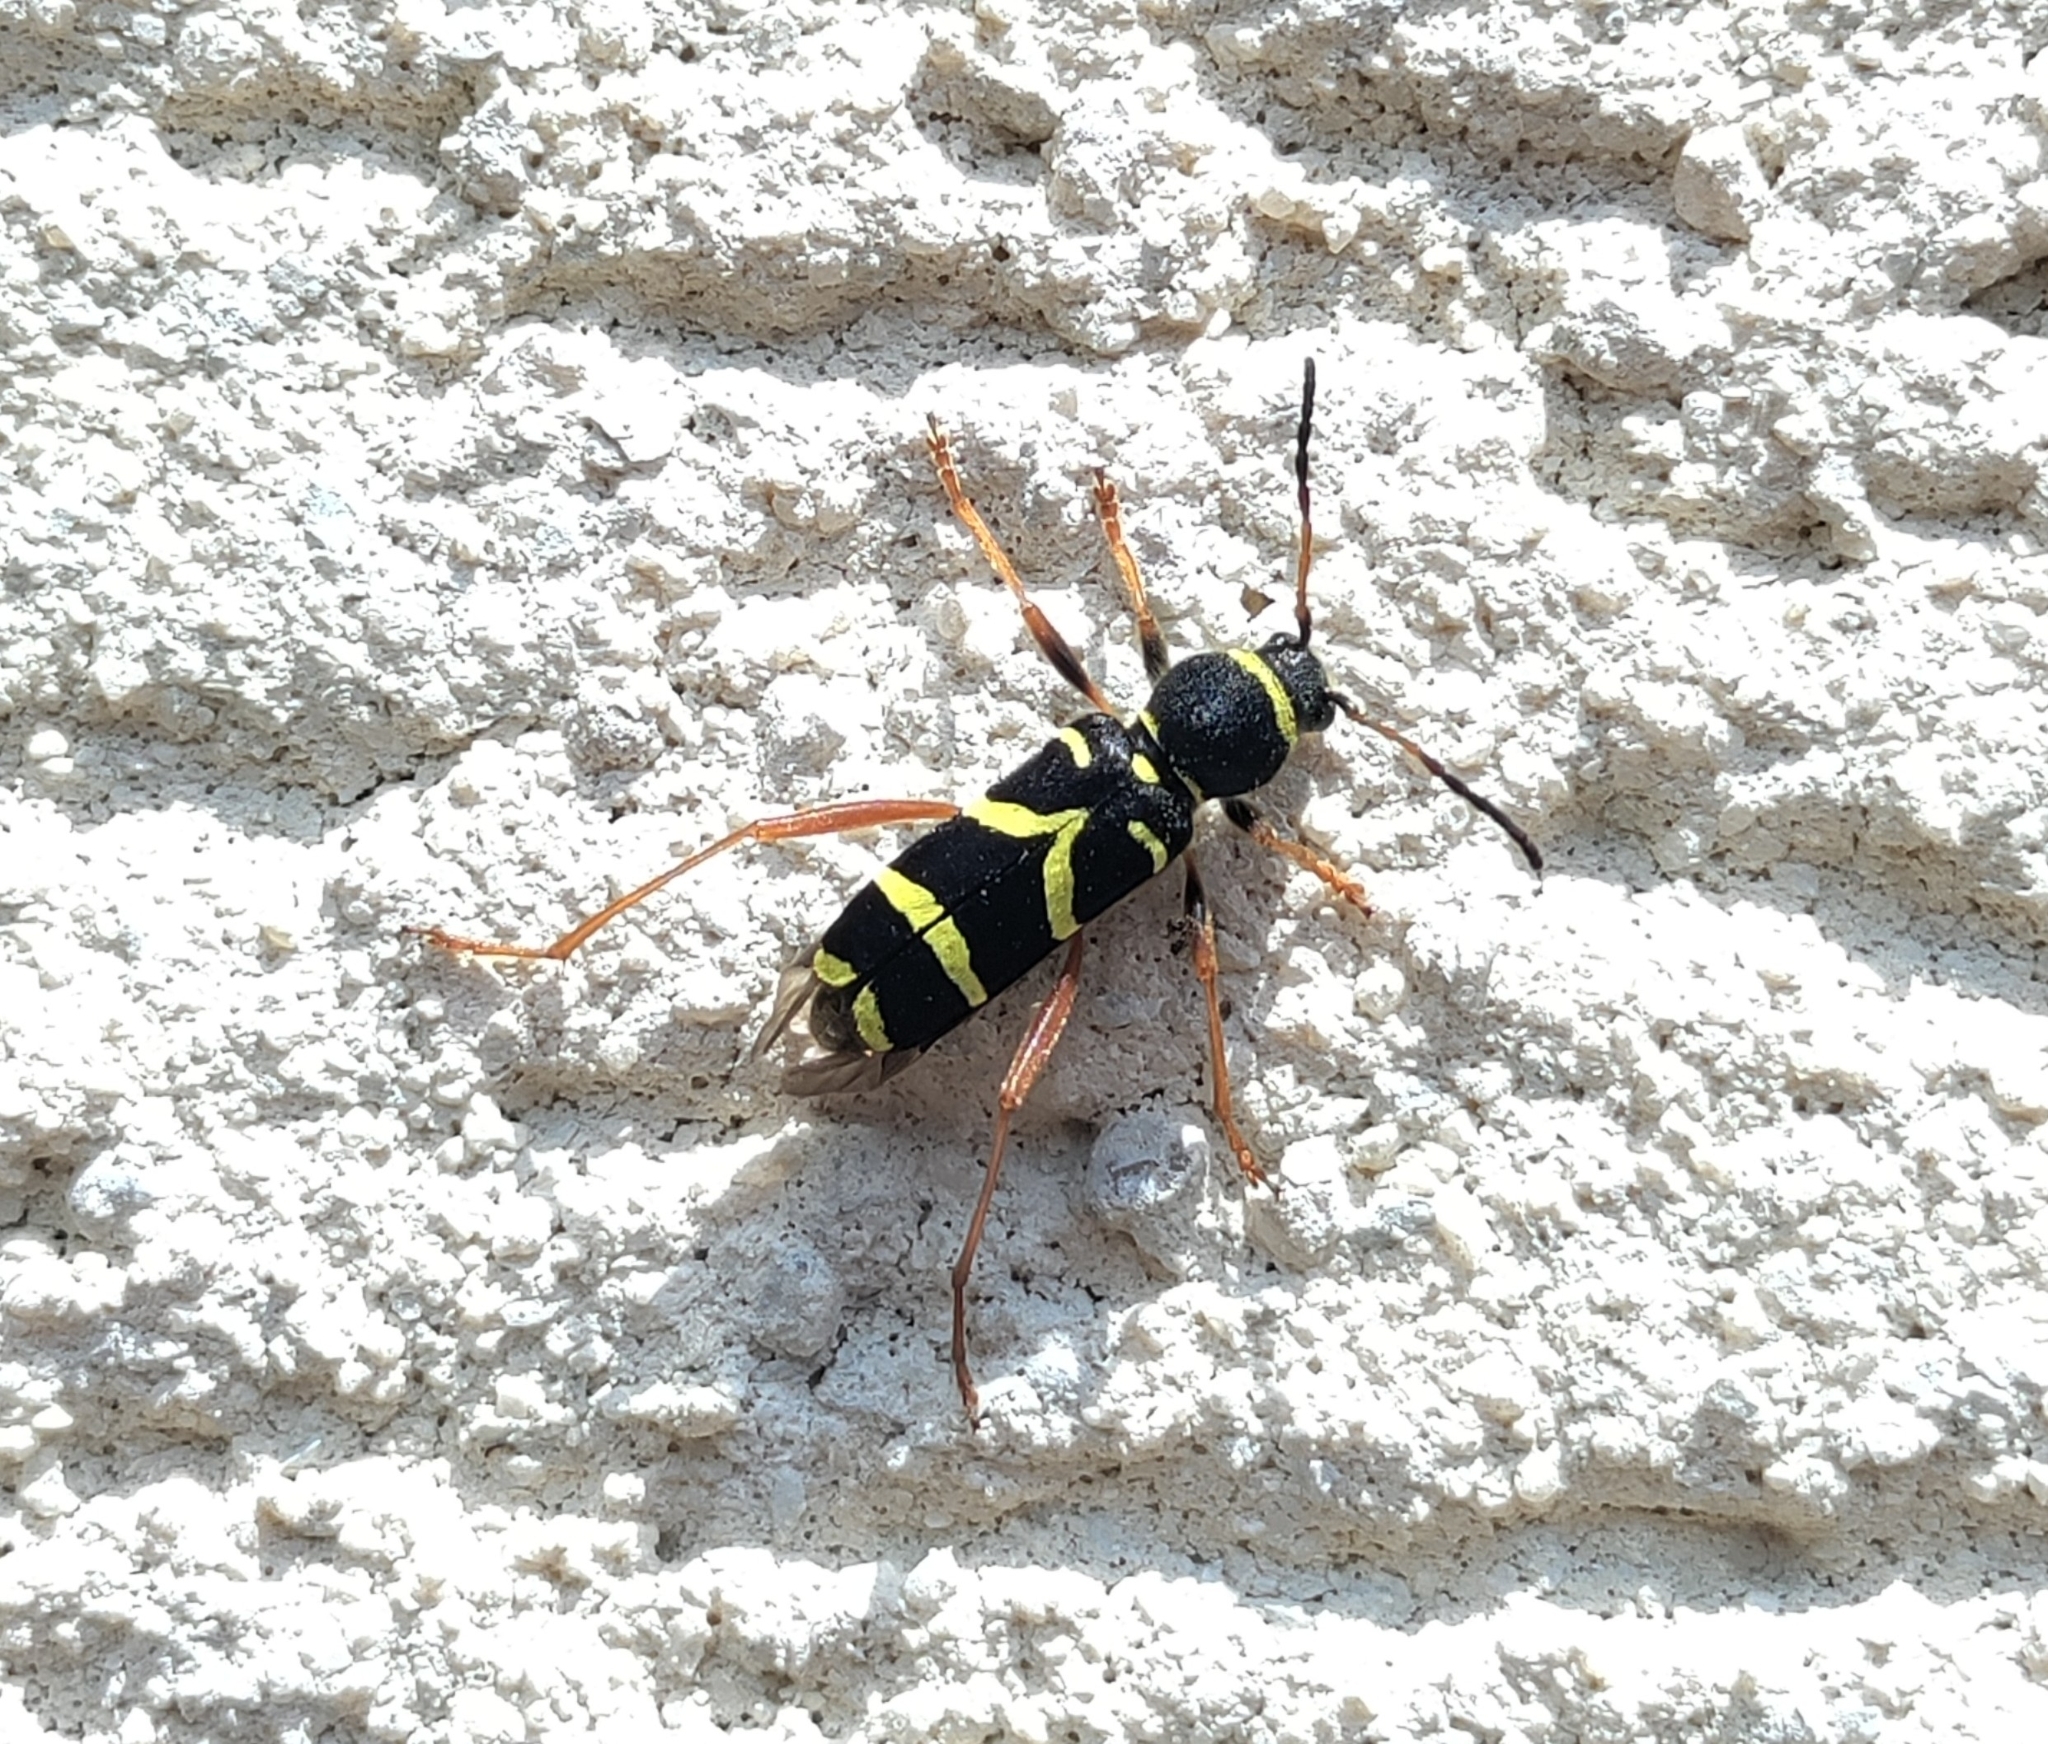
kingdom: Animalia
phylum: Arthropoda
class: Insecta
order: Coleoptera
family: Cerambycidae
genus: Clytus
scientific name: Clytus arietis
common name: Wasp beetle
